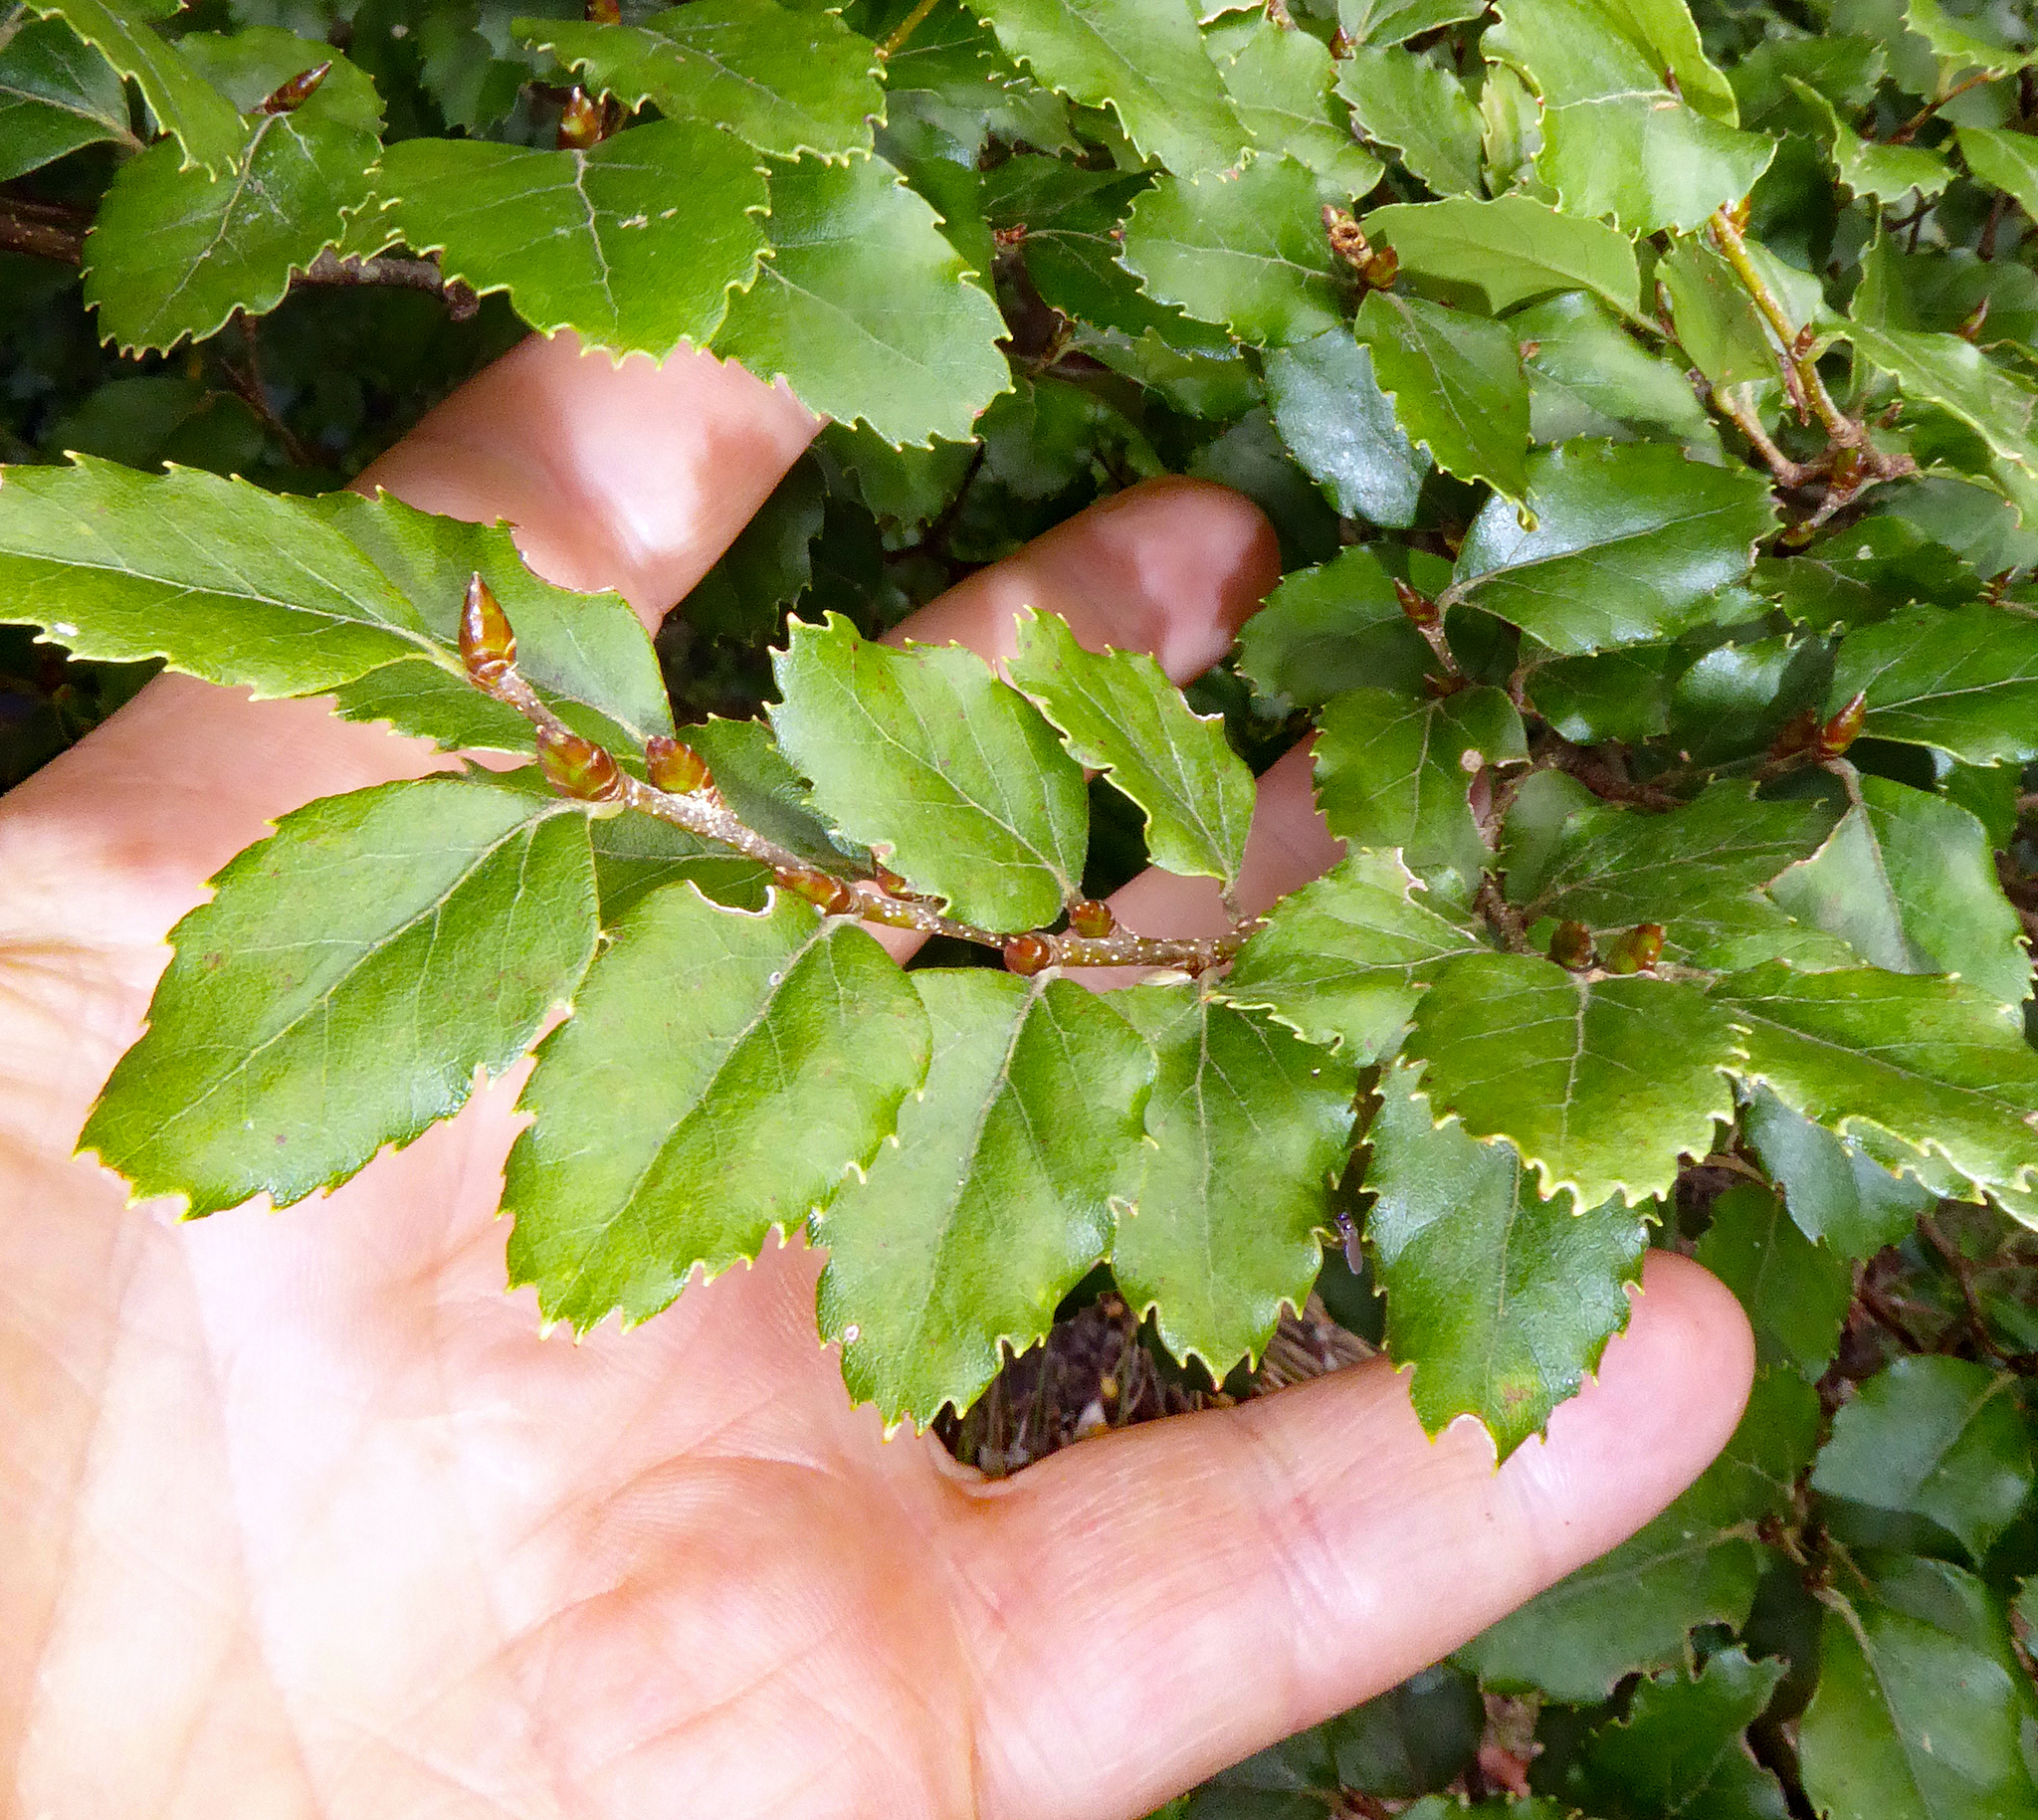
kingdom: Plantae
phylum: Tracheophyta
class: Magnoliopsida
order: Fagales
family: Nothofagaceae
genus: Nothofagus
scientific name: Nothofagus fusca
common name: Red beech
